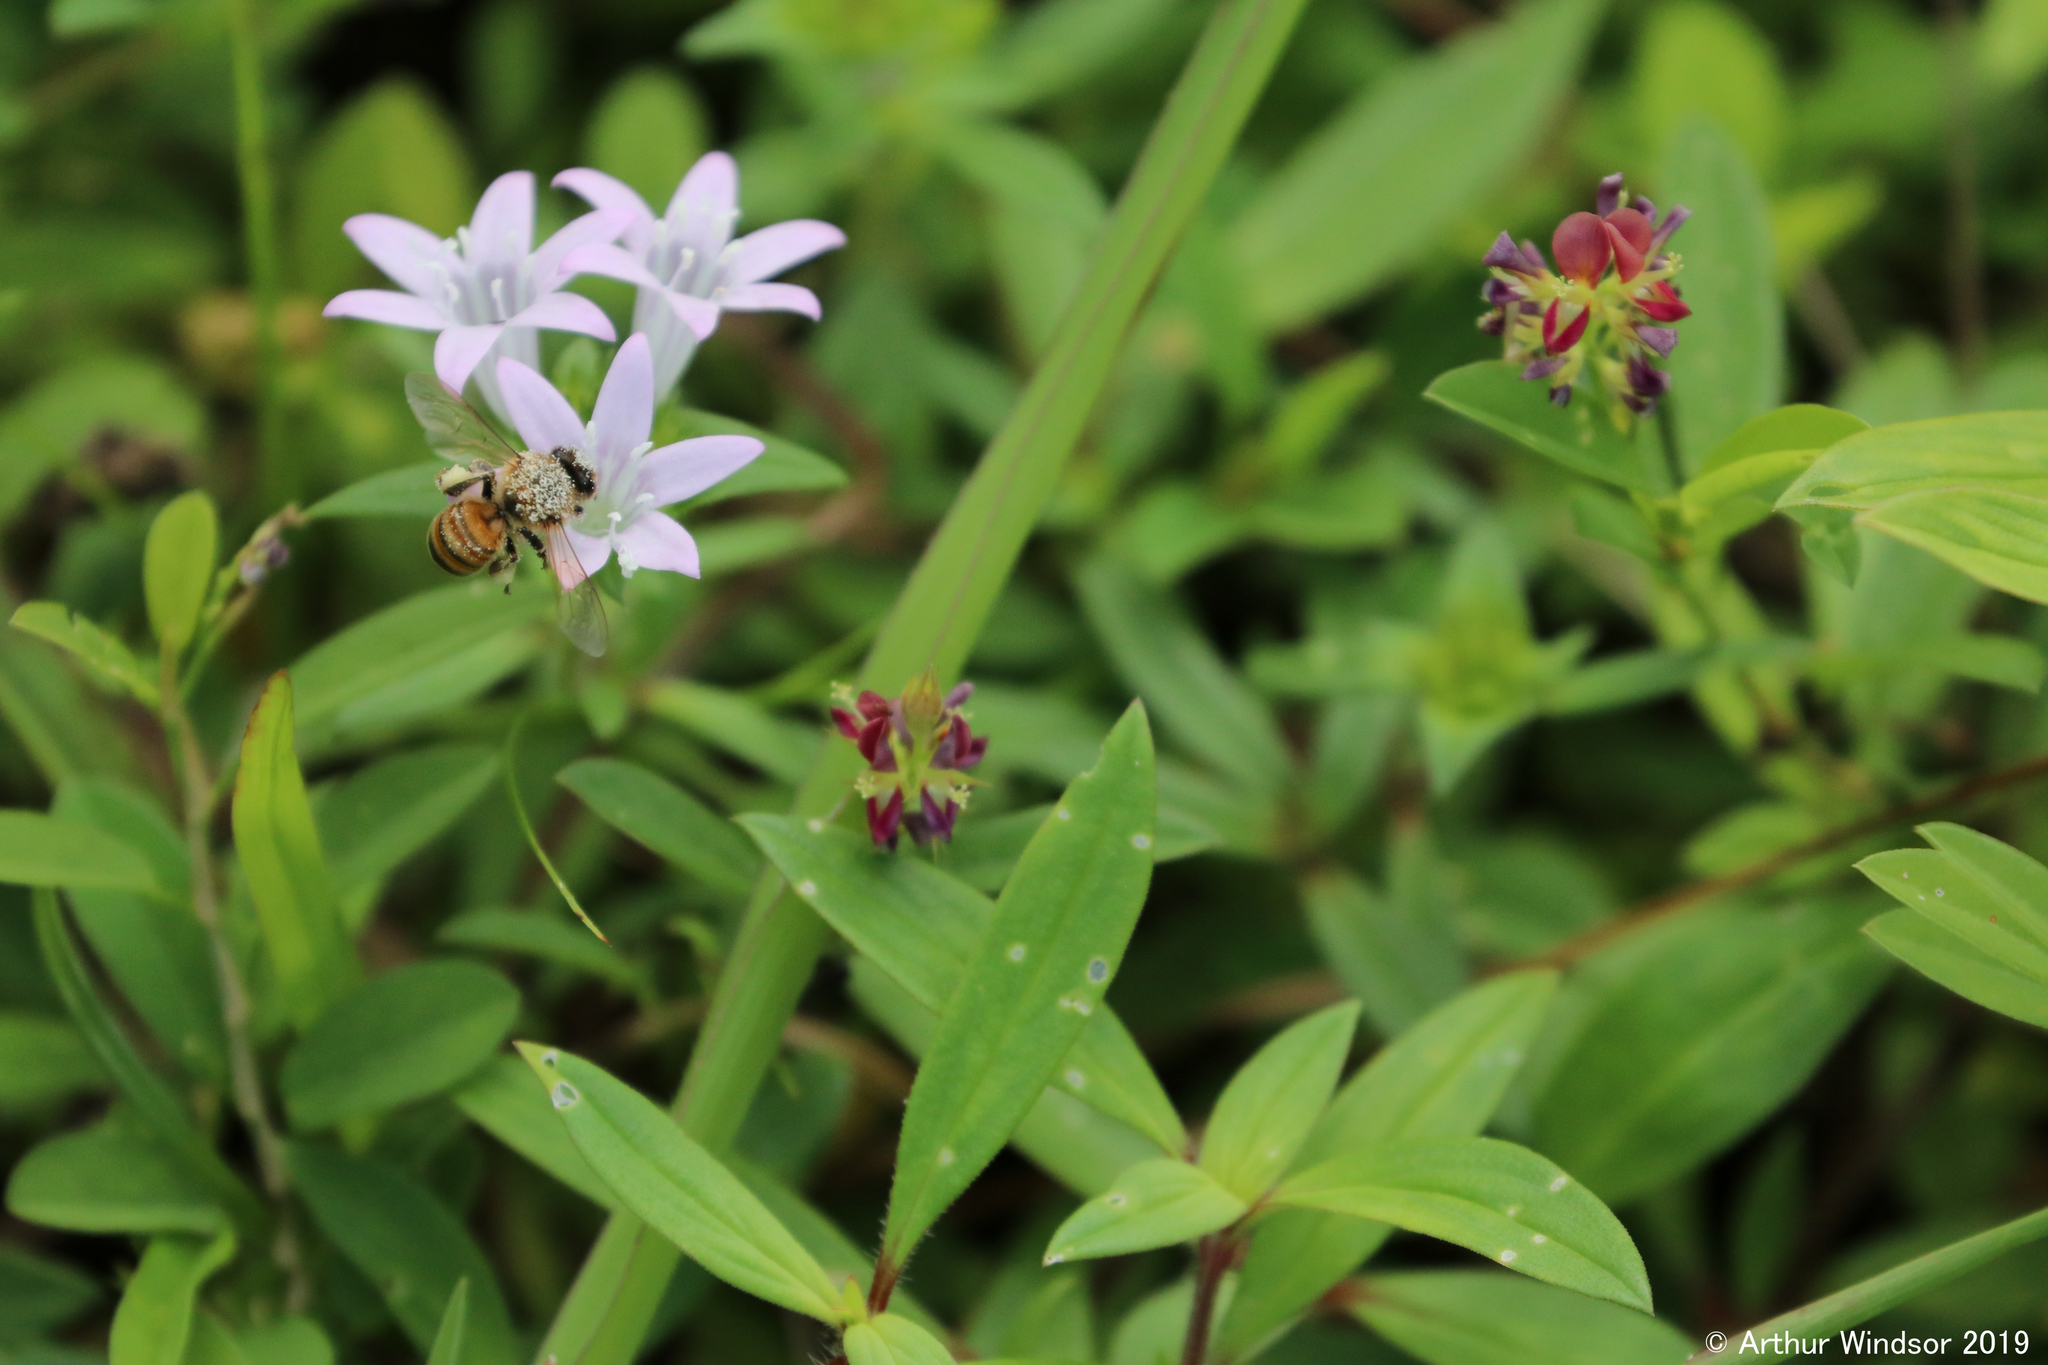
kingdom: Animalia
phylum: Arthropoda
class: Insecta
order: Hymenoptera
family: Apidae
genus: Apis
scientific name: Apis mellifera
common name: Honey bee
